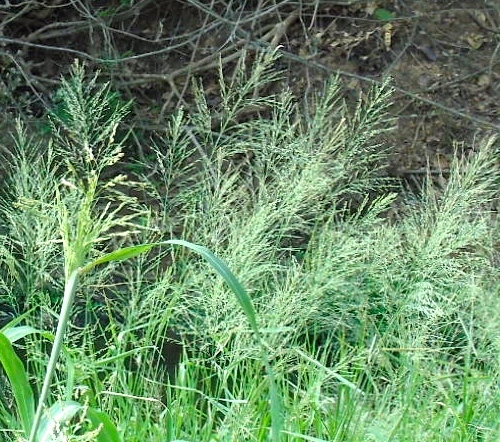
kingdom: Plantae
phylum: Tracheophyta
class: Liliopsida
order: Poales
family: Poaceae
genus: Panicum
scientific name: Panicum
